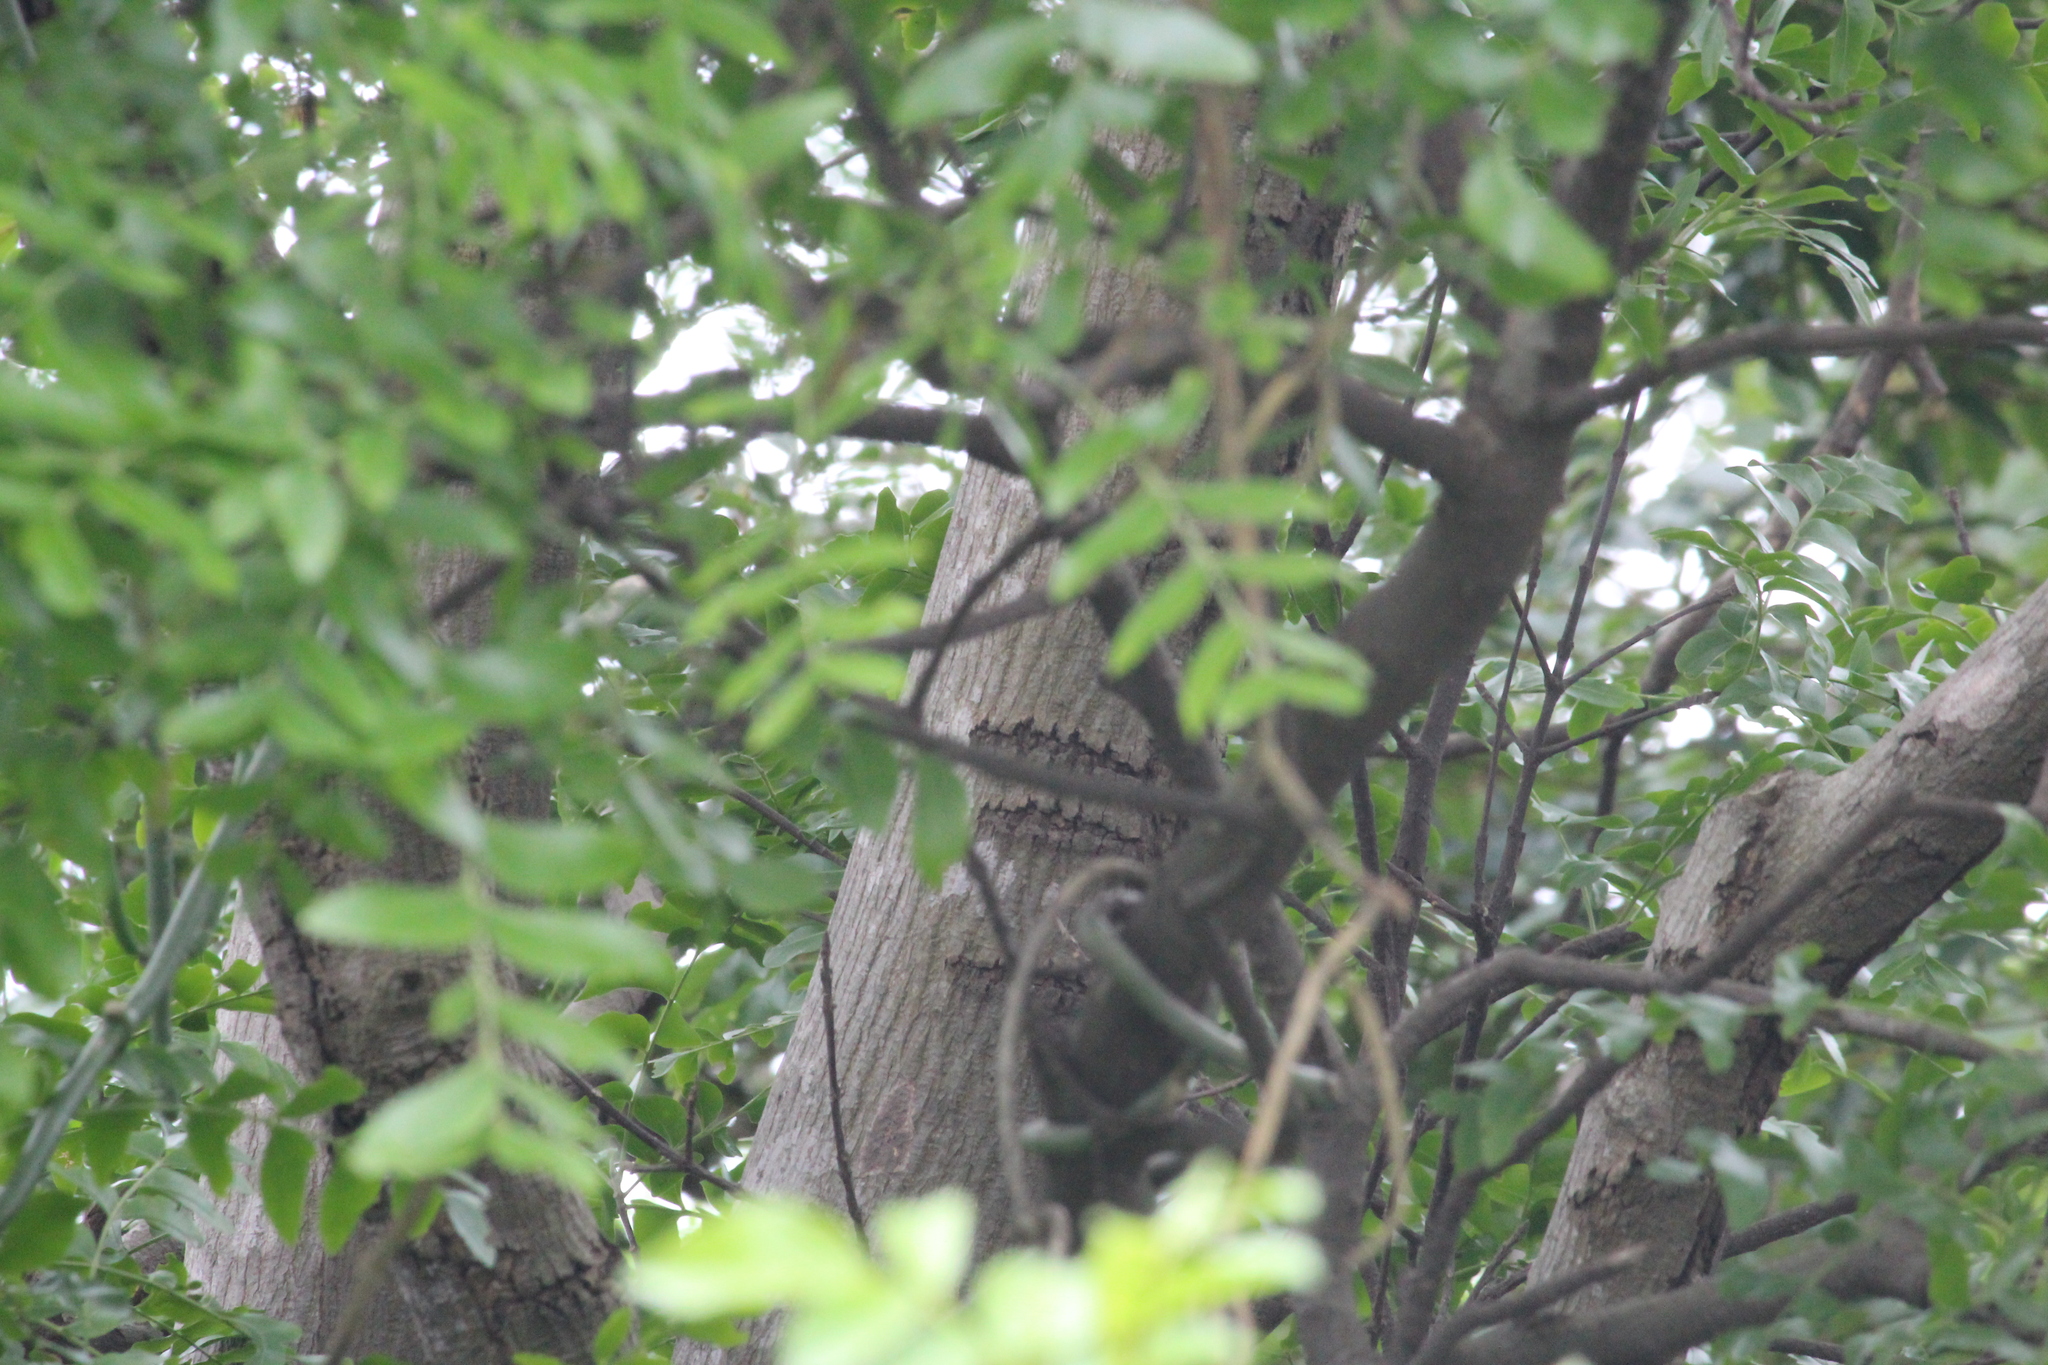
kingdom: Plantae
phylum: Tracheophyta
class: Magnoliopsida
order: Sapindales
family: Rutaceae
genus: Ptaeroxylon
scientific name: Ptaeroxylon obliquum
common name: Sneezewood
